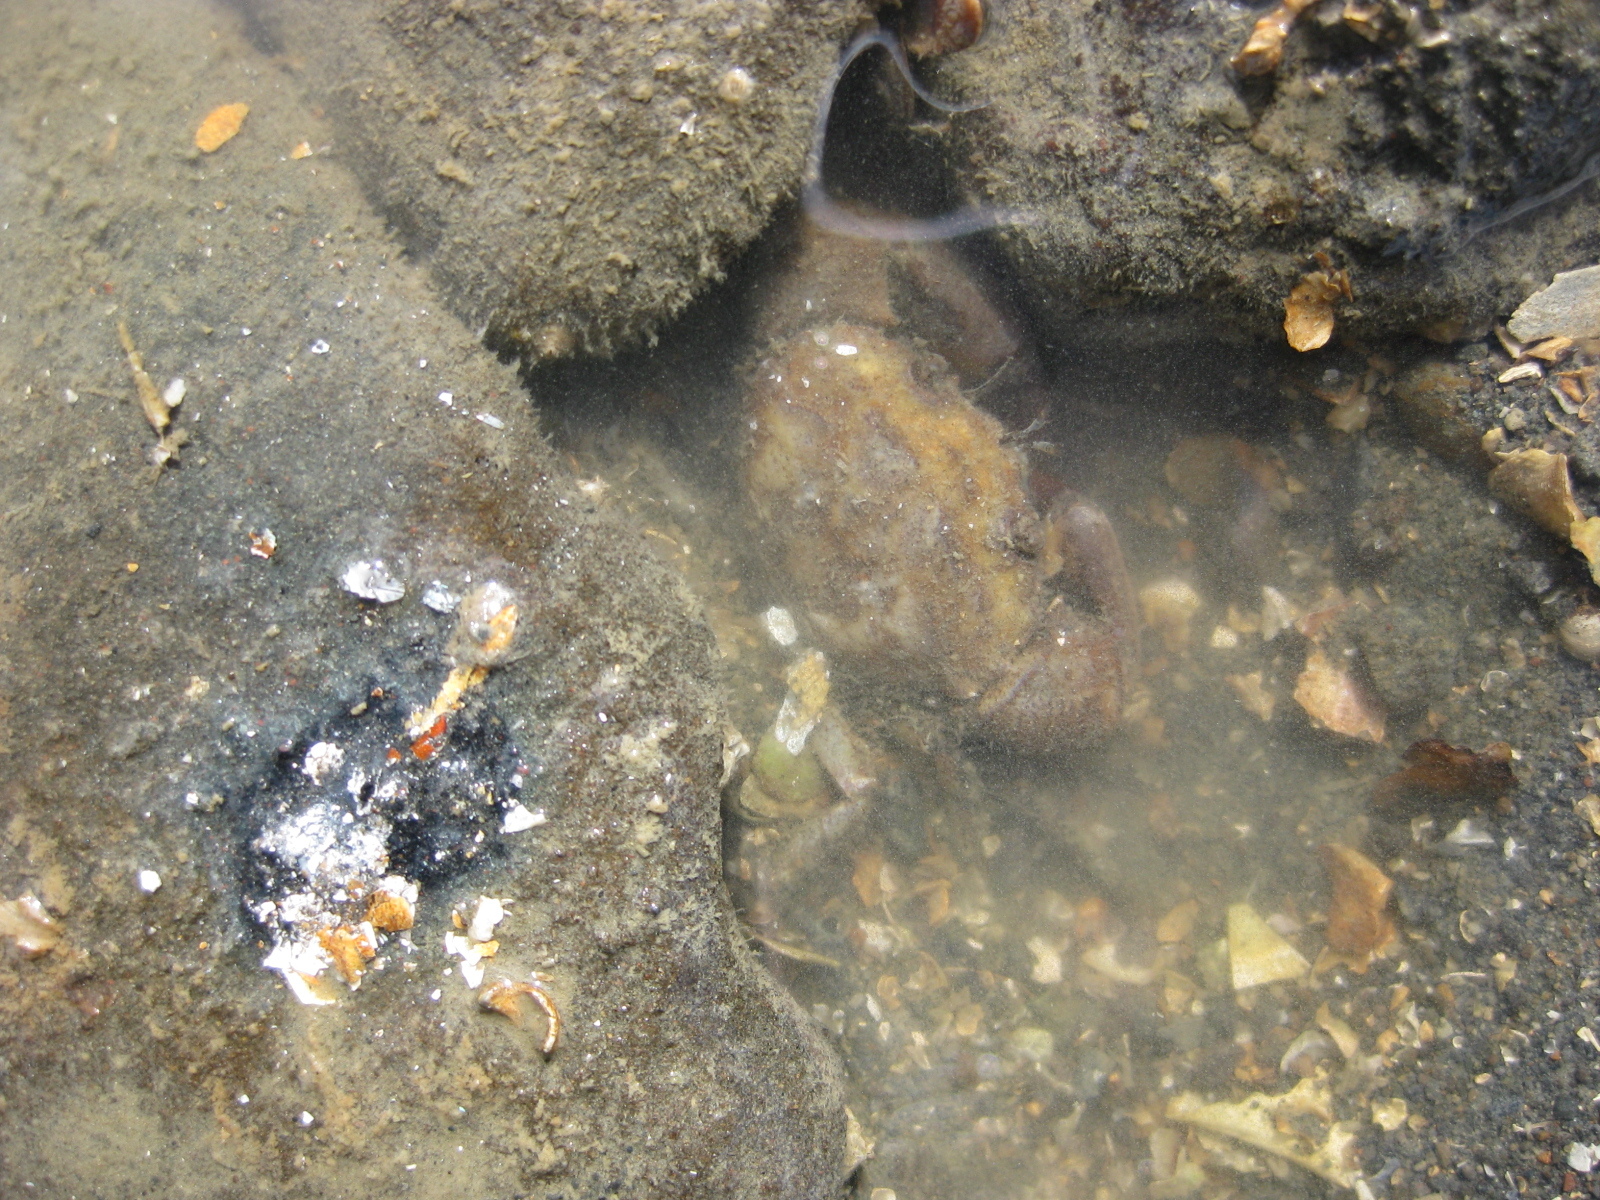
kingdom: Animalia
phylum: Arthropoda
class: Malacostraca
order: Decapoda
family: Pilumnidae
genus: Pilumnopeus
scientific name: Pilumnopeus serratifrons
